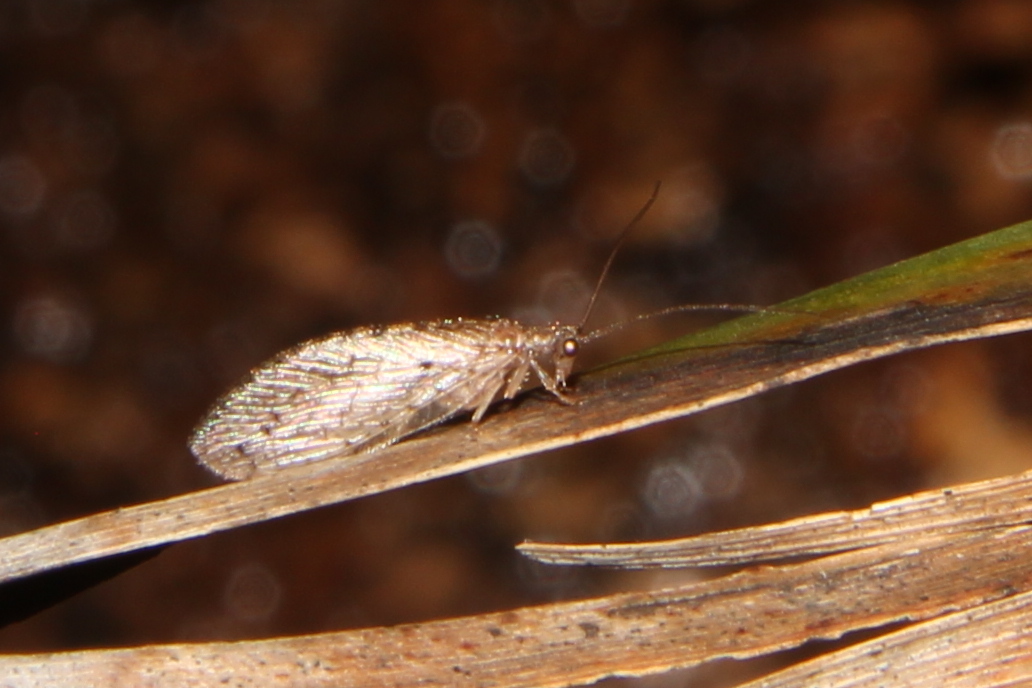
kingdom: Animalia
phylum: Arthropoda
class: Insecta
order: Neuroptera
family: Hemerobiidae
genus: Micromus
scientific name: Micromus tasmaniae
